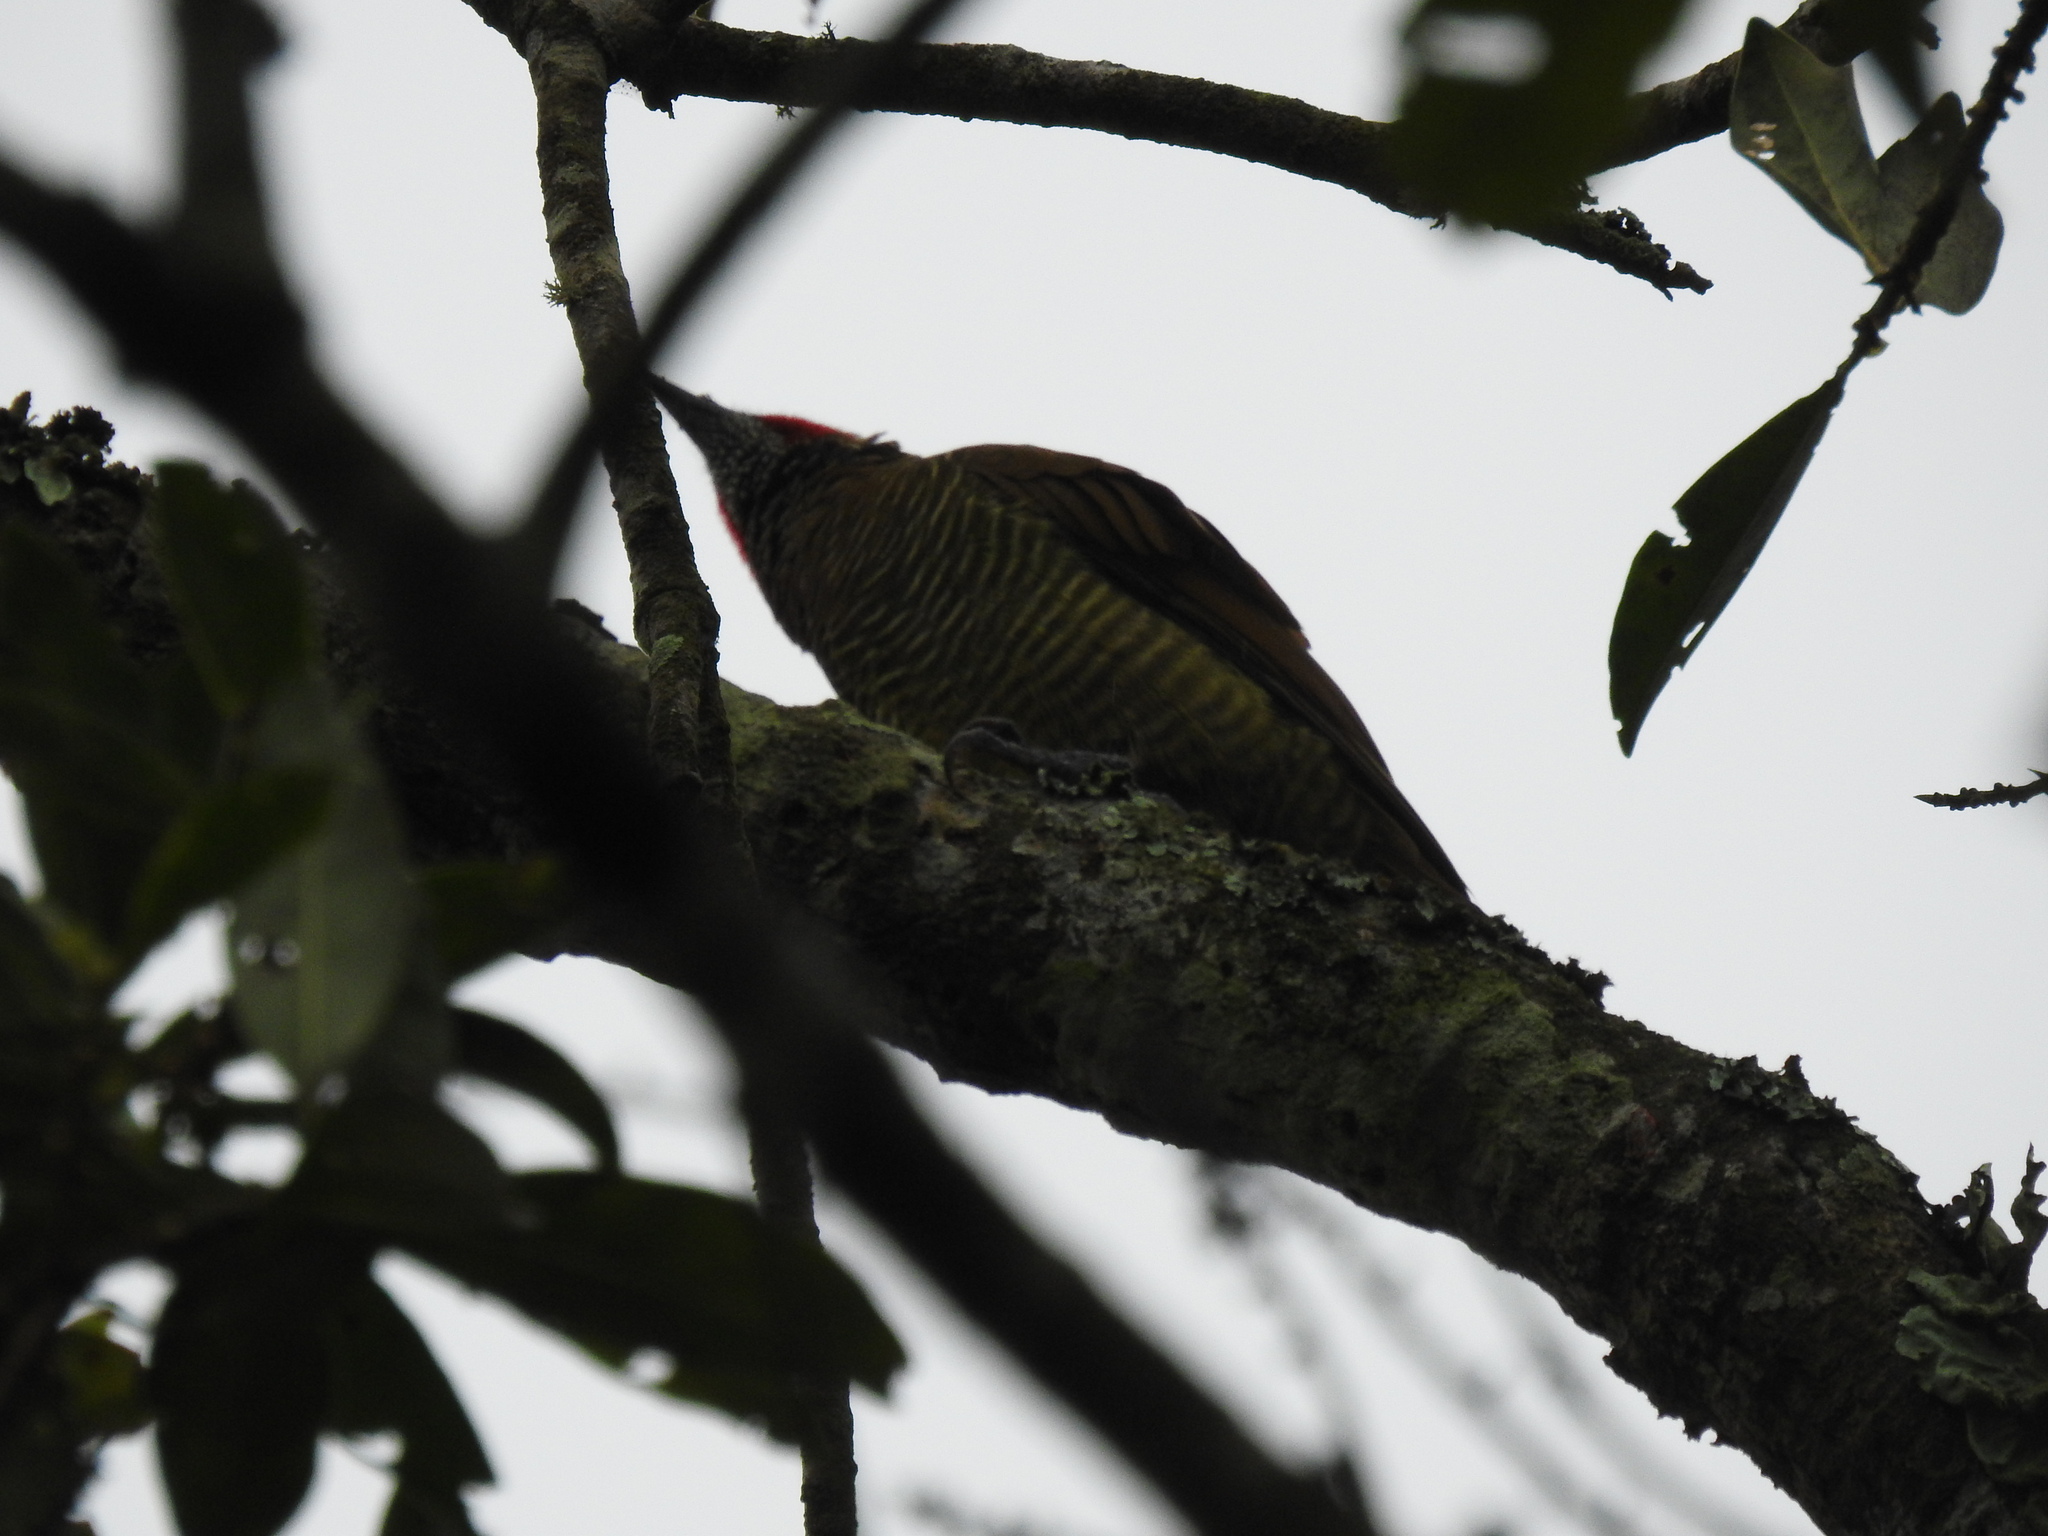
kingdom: Animalia
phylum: Chordata
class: Aves
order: Piciformes
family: Picidae
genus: Colaptes
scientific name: Colaptes rubiginosus
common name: Golden-olive woodpecker
